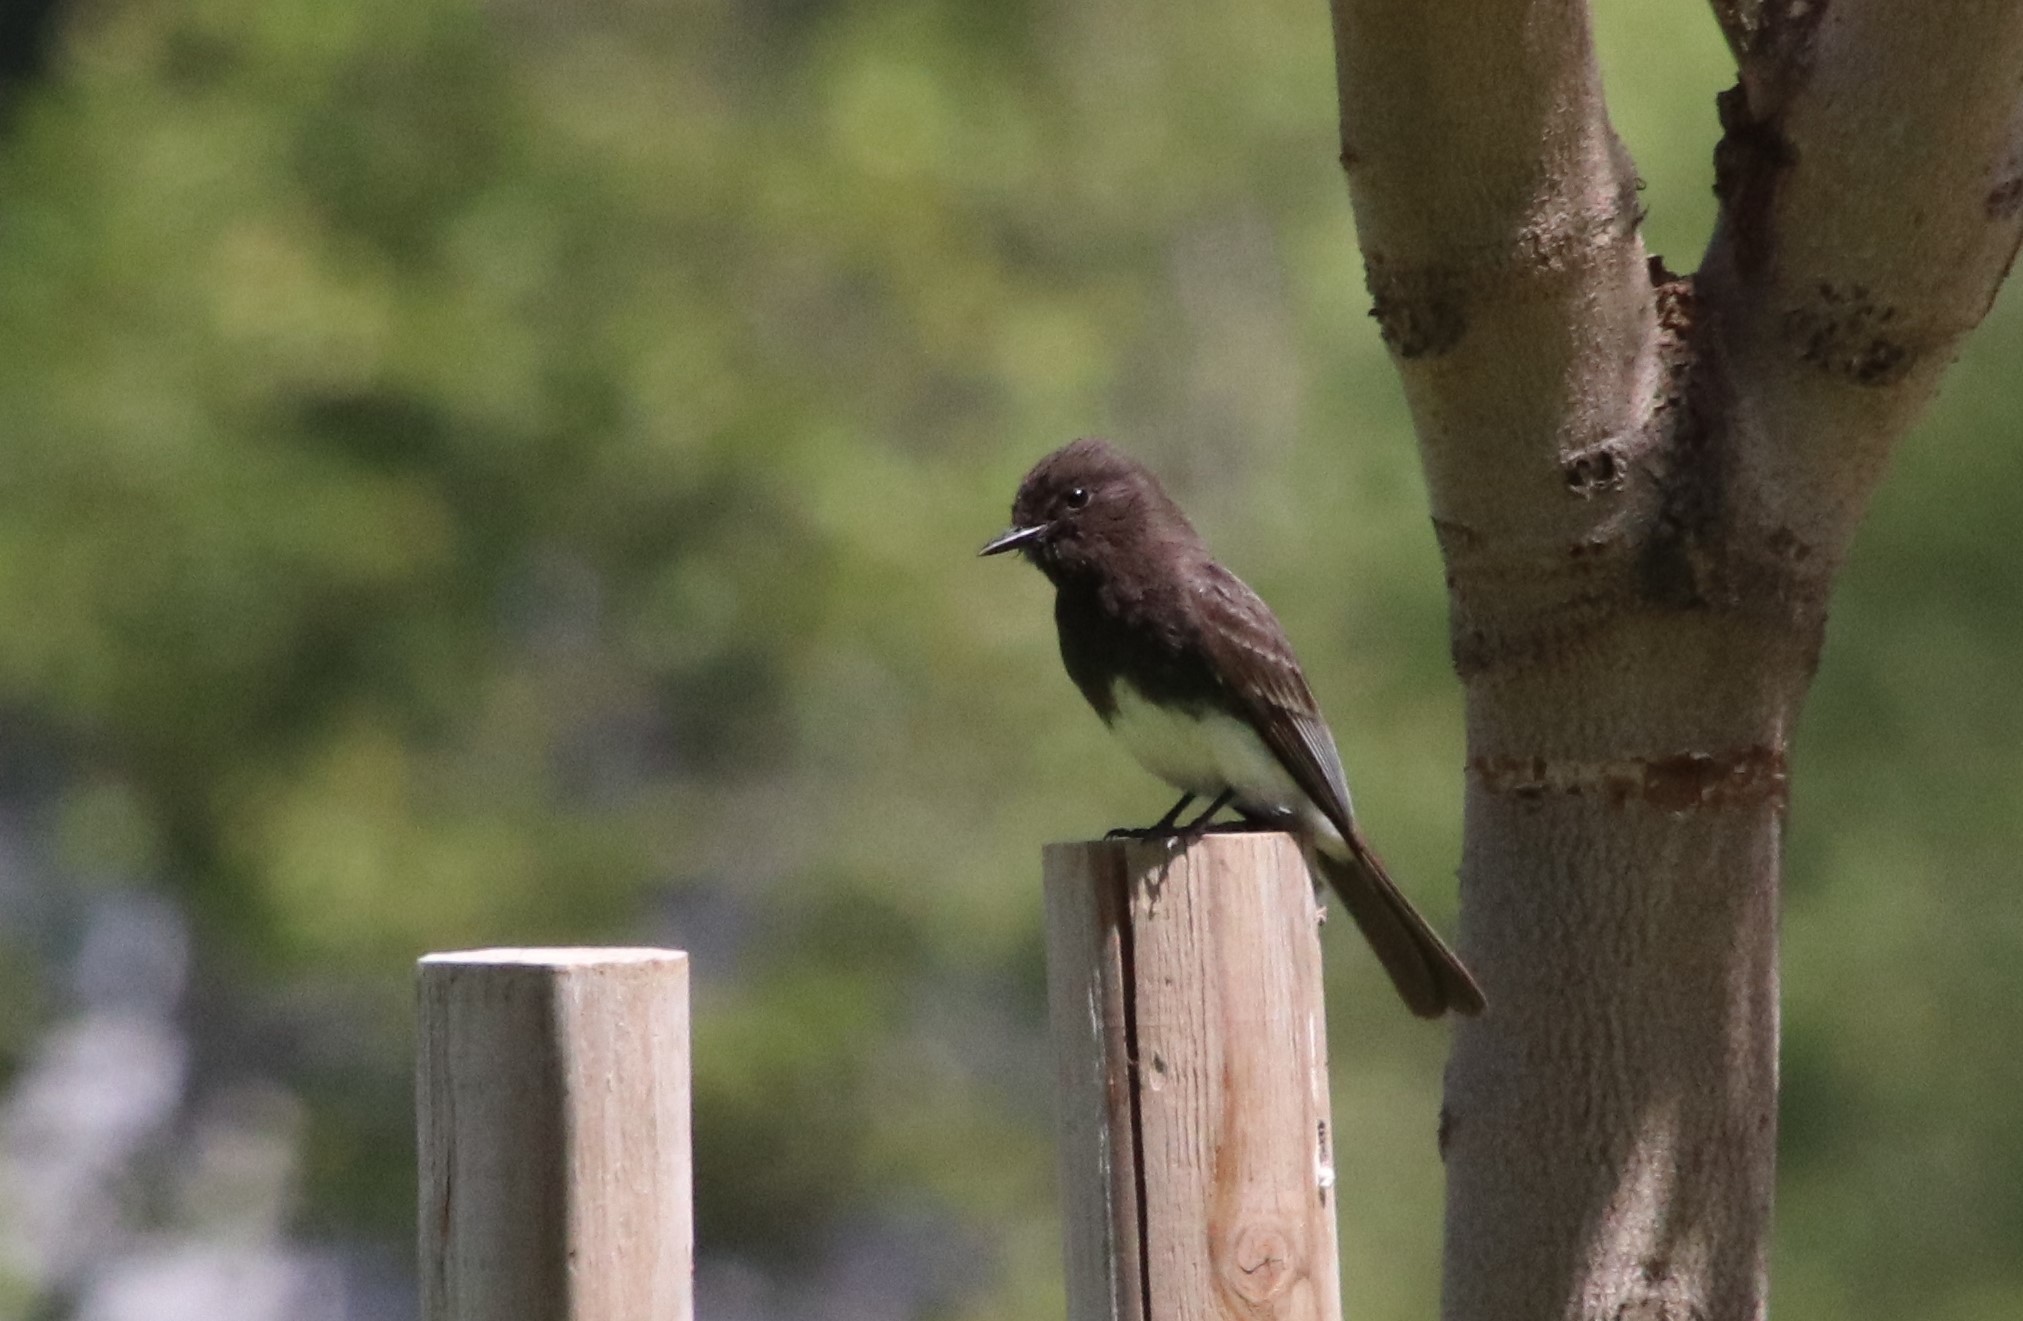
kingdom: Animalia
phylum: Chordata
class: Aves
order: Passeriformes
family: Tyrannidae
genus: Sayornis
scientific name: Sayornis nigricans
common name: Black phoebe
